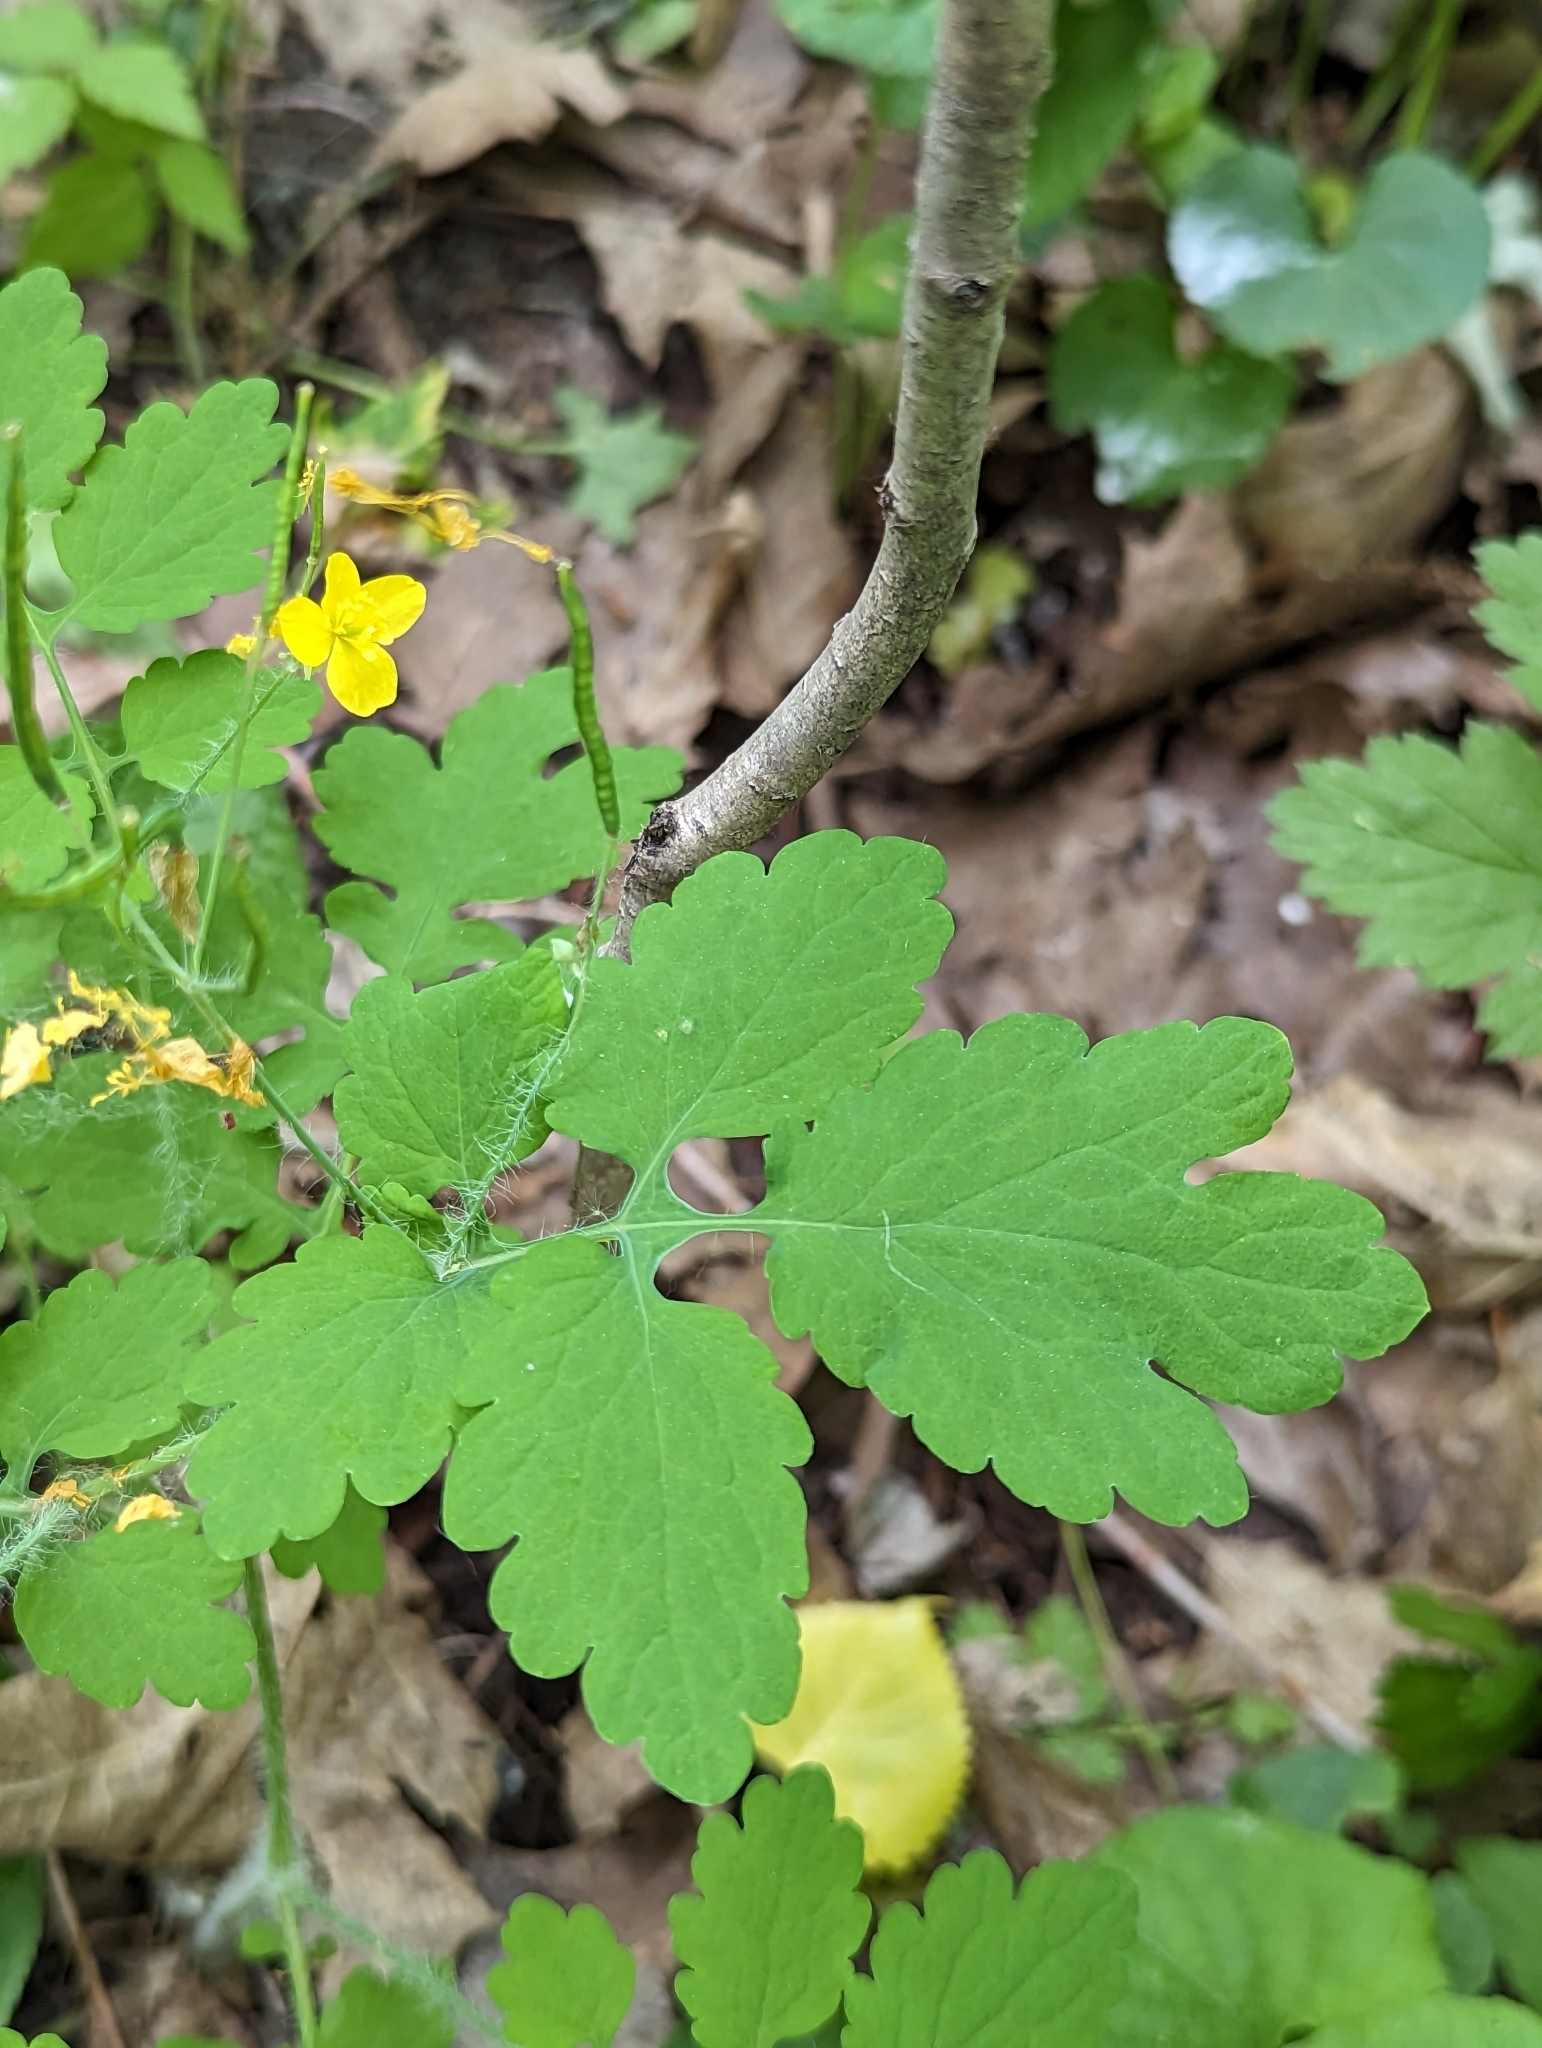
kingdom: Plantae
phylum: Tracheophyta
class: Magnoliopsida
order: Ranunculales
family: Papaveraceae
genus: Chelidonium
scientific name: Chelidonium majus
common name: Greater celandine
